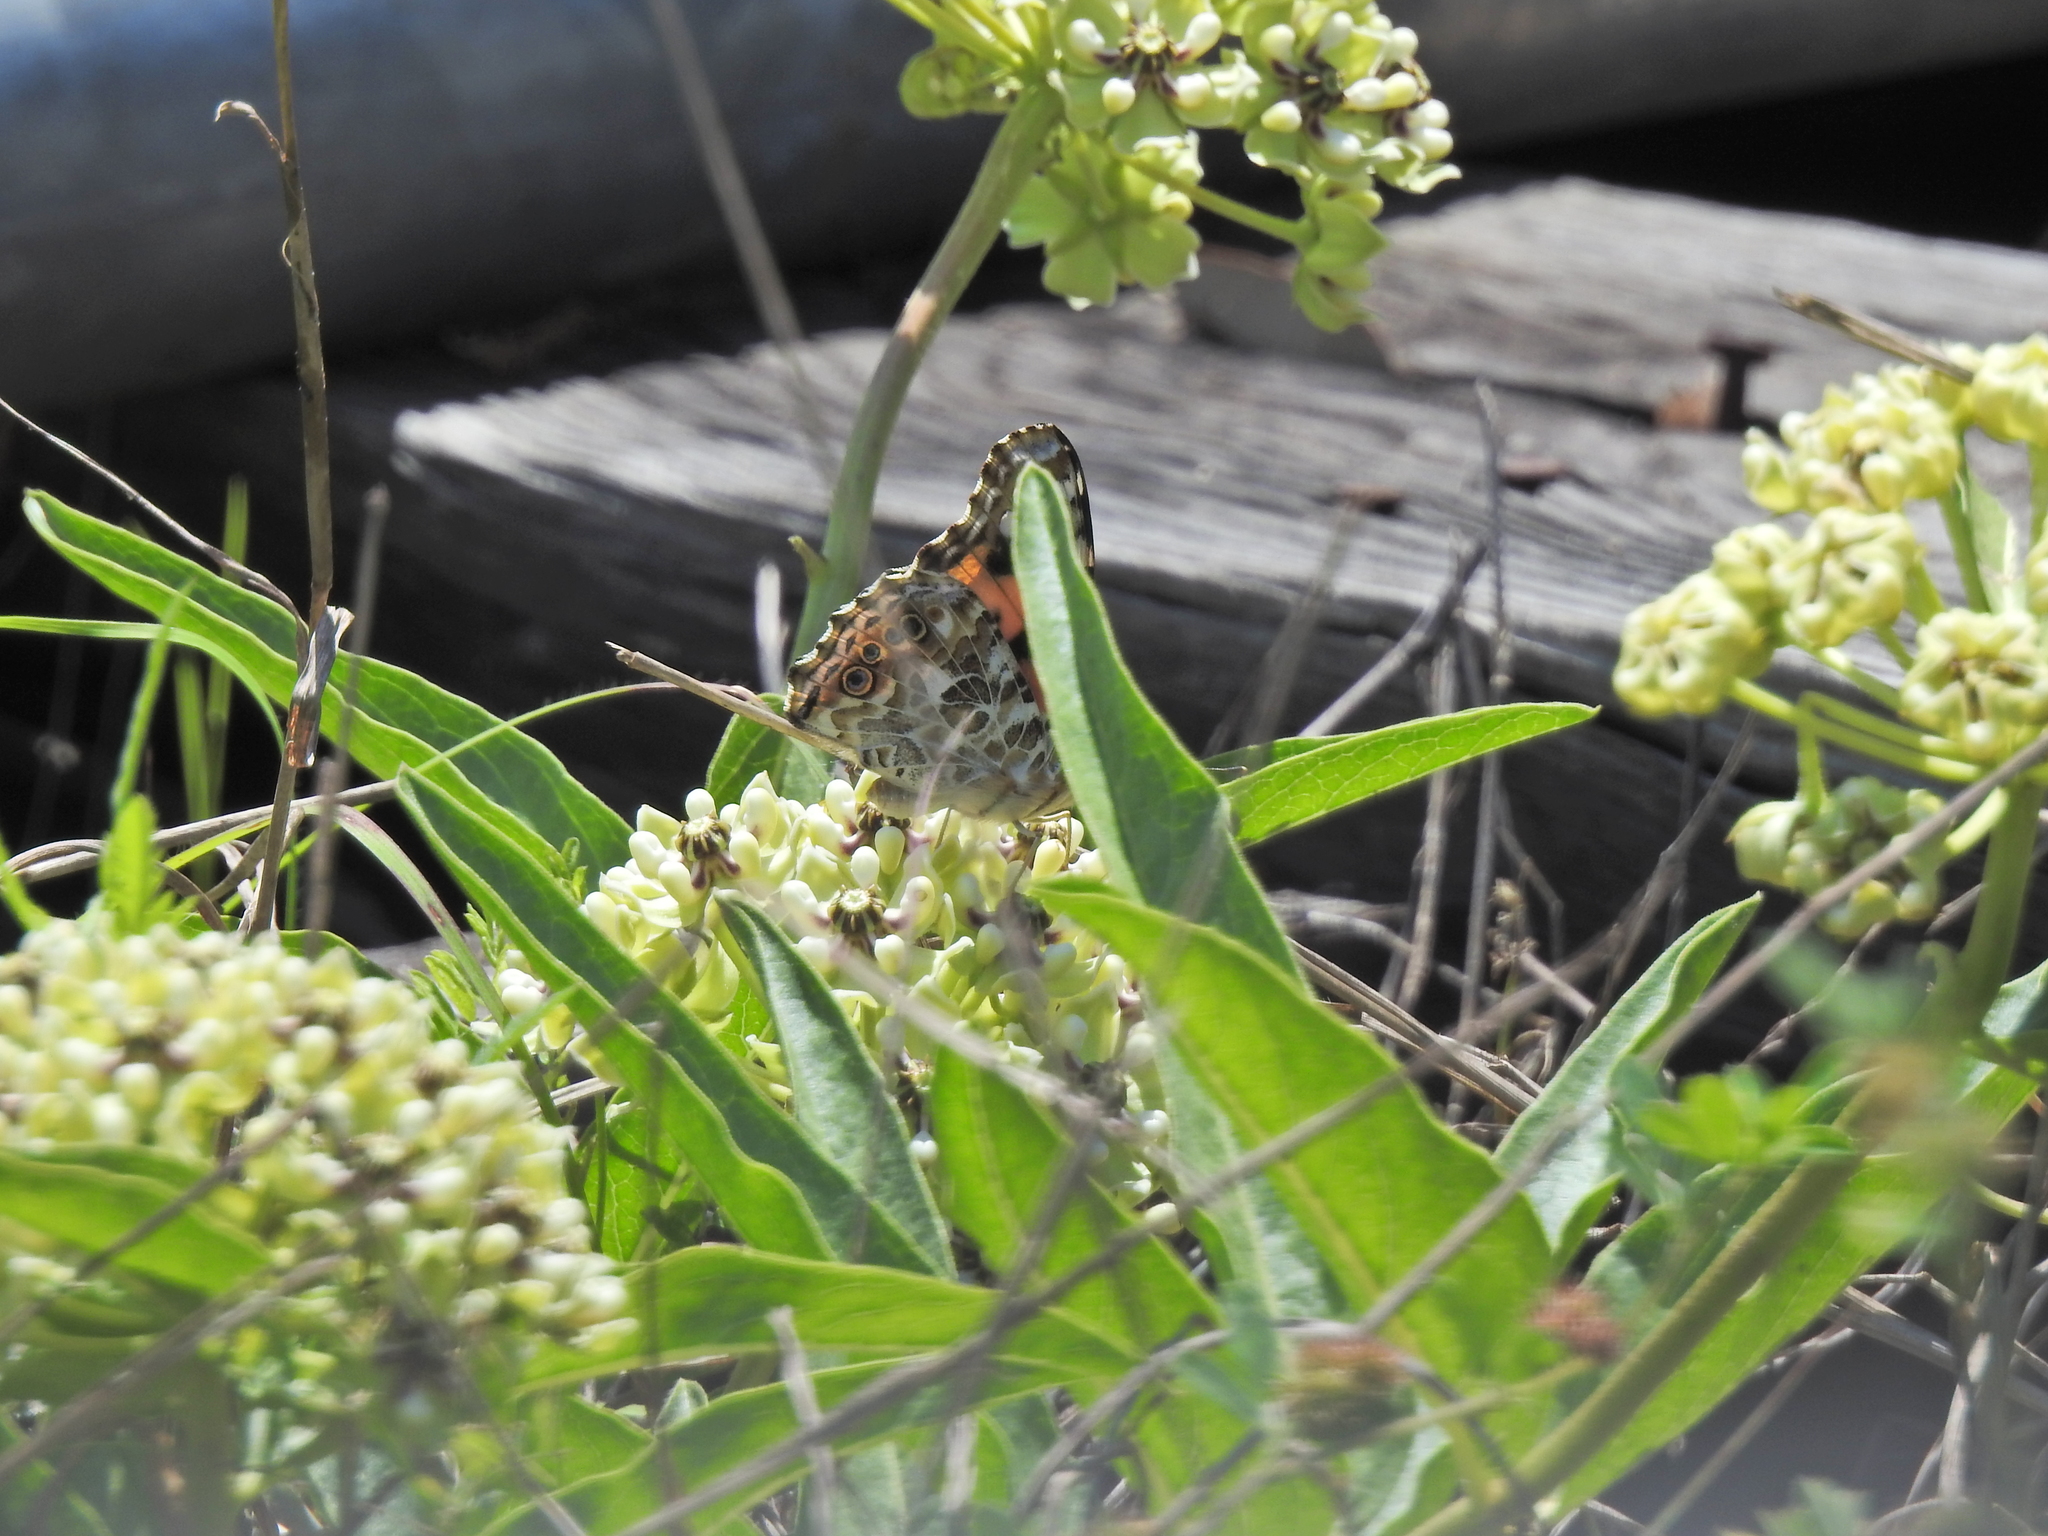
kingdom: Animalia
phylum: Arthropoda
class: Insecta
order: Lepidoptera
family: Nymphalidae
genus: Vanessa
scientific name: Vanessa cardui
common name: Painted lady
